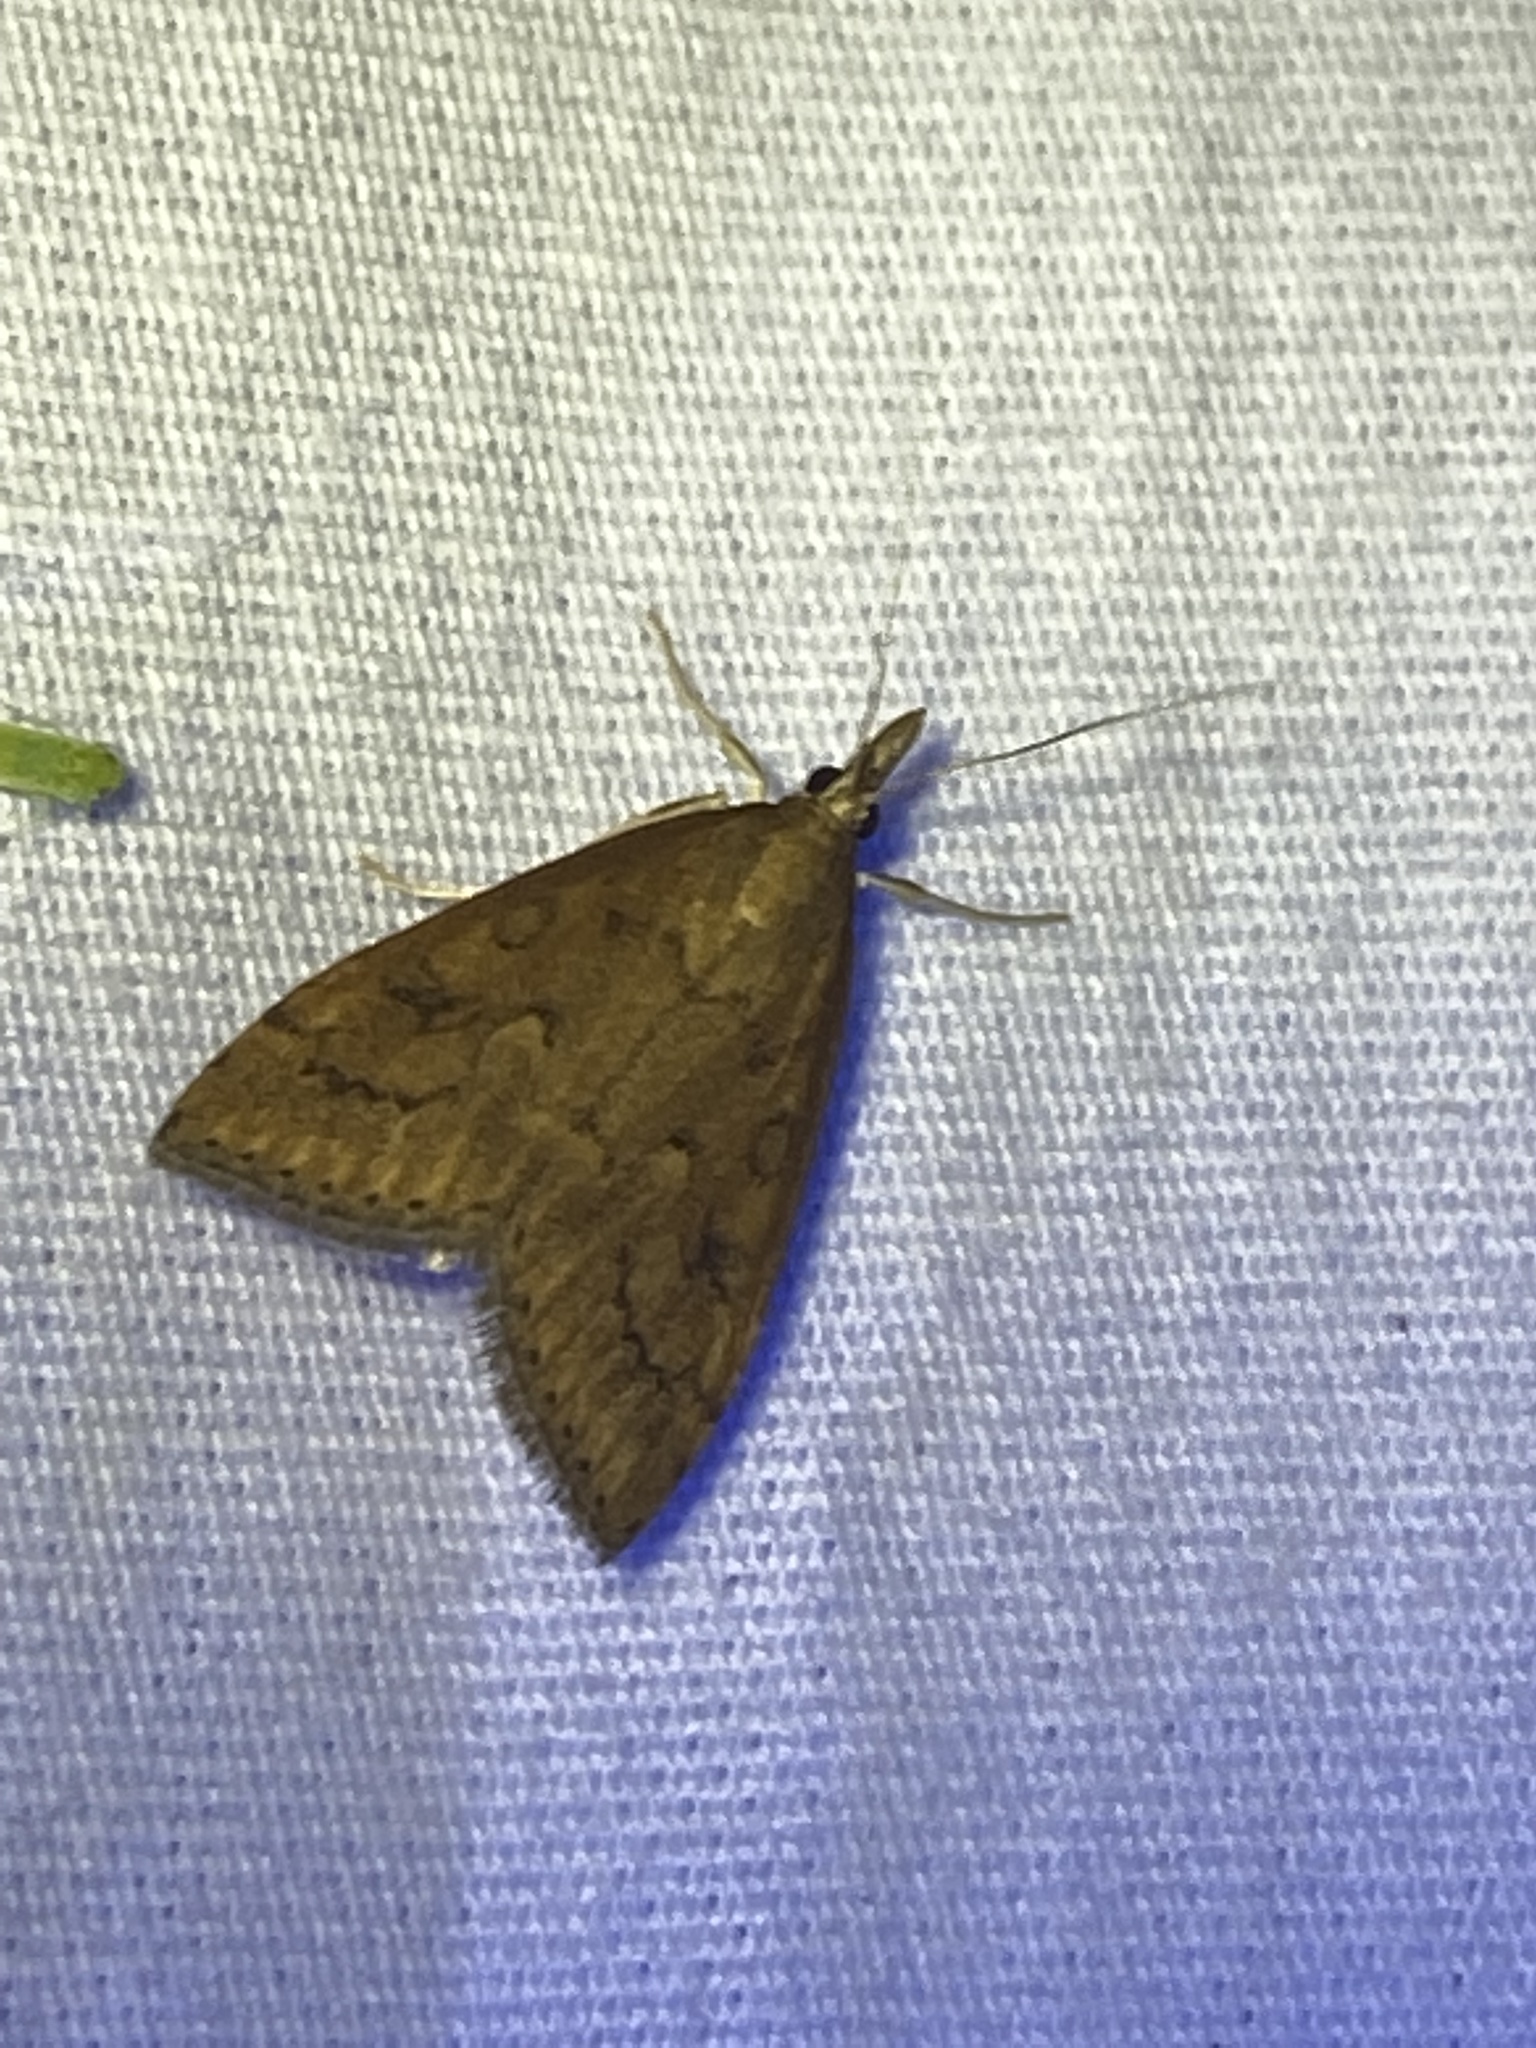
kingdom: Animalia
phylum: Arthropoda
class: Insecta
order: Lepidoptera
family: Crambidae
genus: Udea
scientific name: Udea rubigalis
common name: Celery leaftier moth
